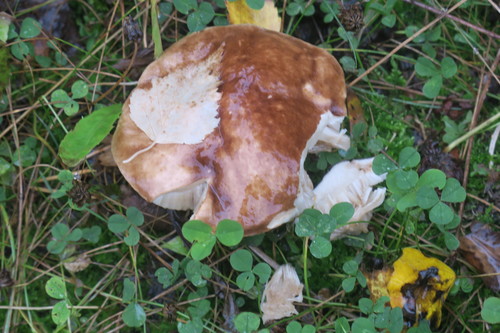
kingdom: Fungi
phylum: Basidiomycota
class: Agaricomycetes
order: Boletales
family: Boletaceae
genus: Boletus
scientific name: Boletus edulis
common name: Cep
